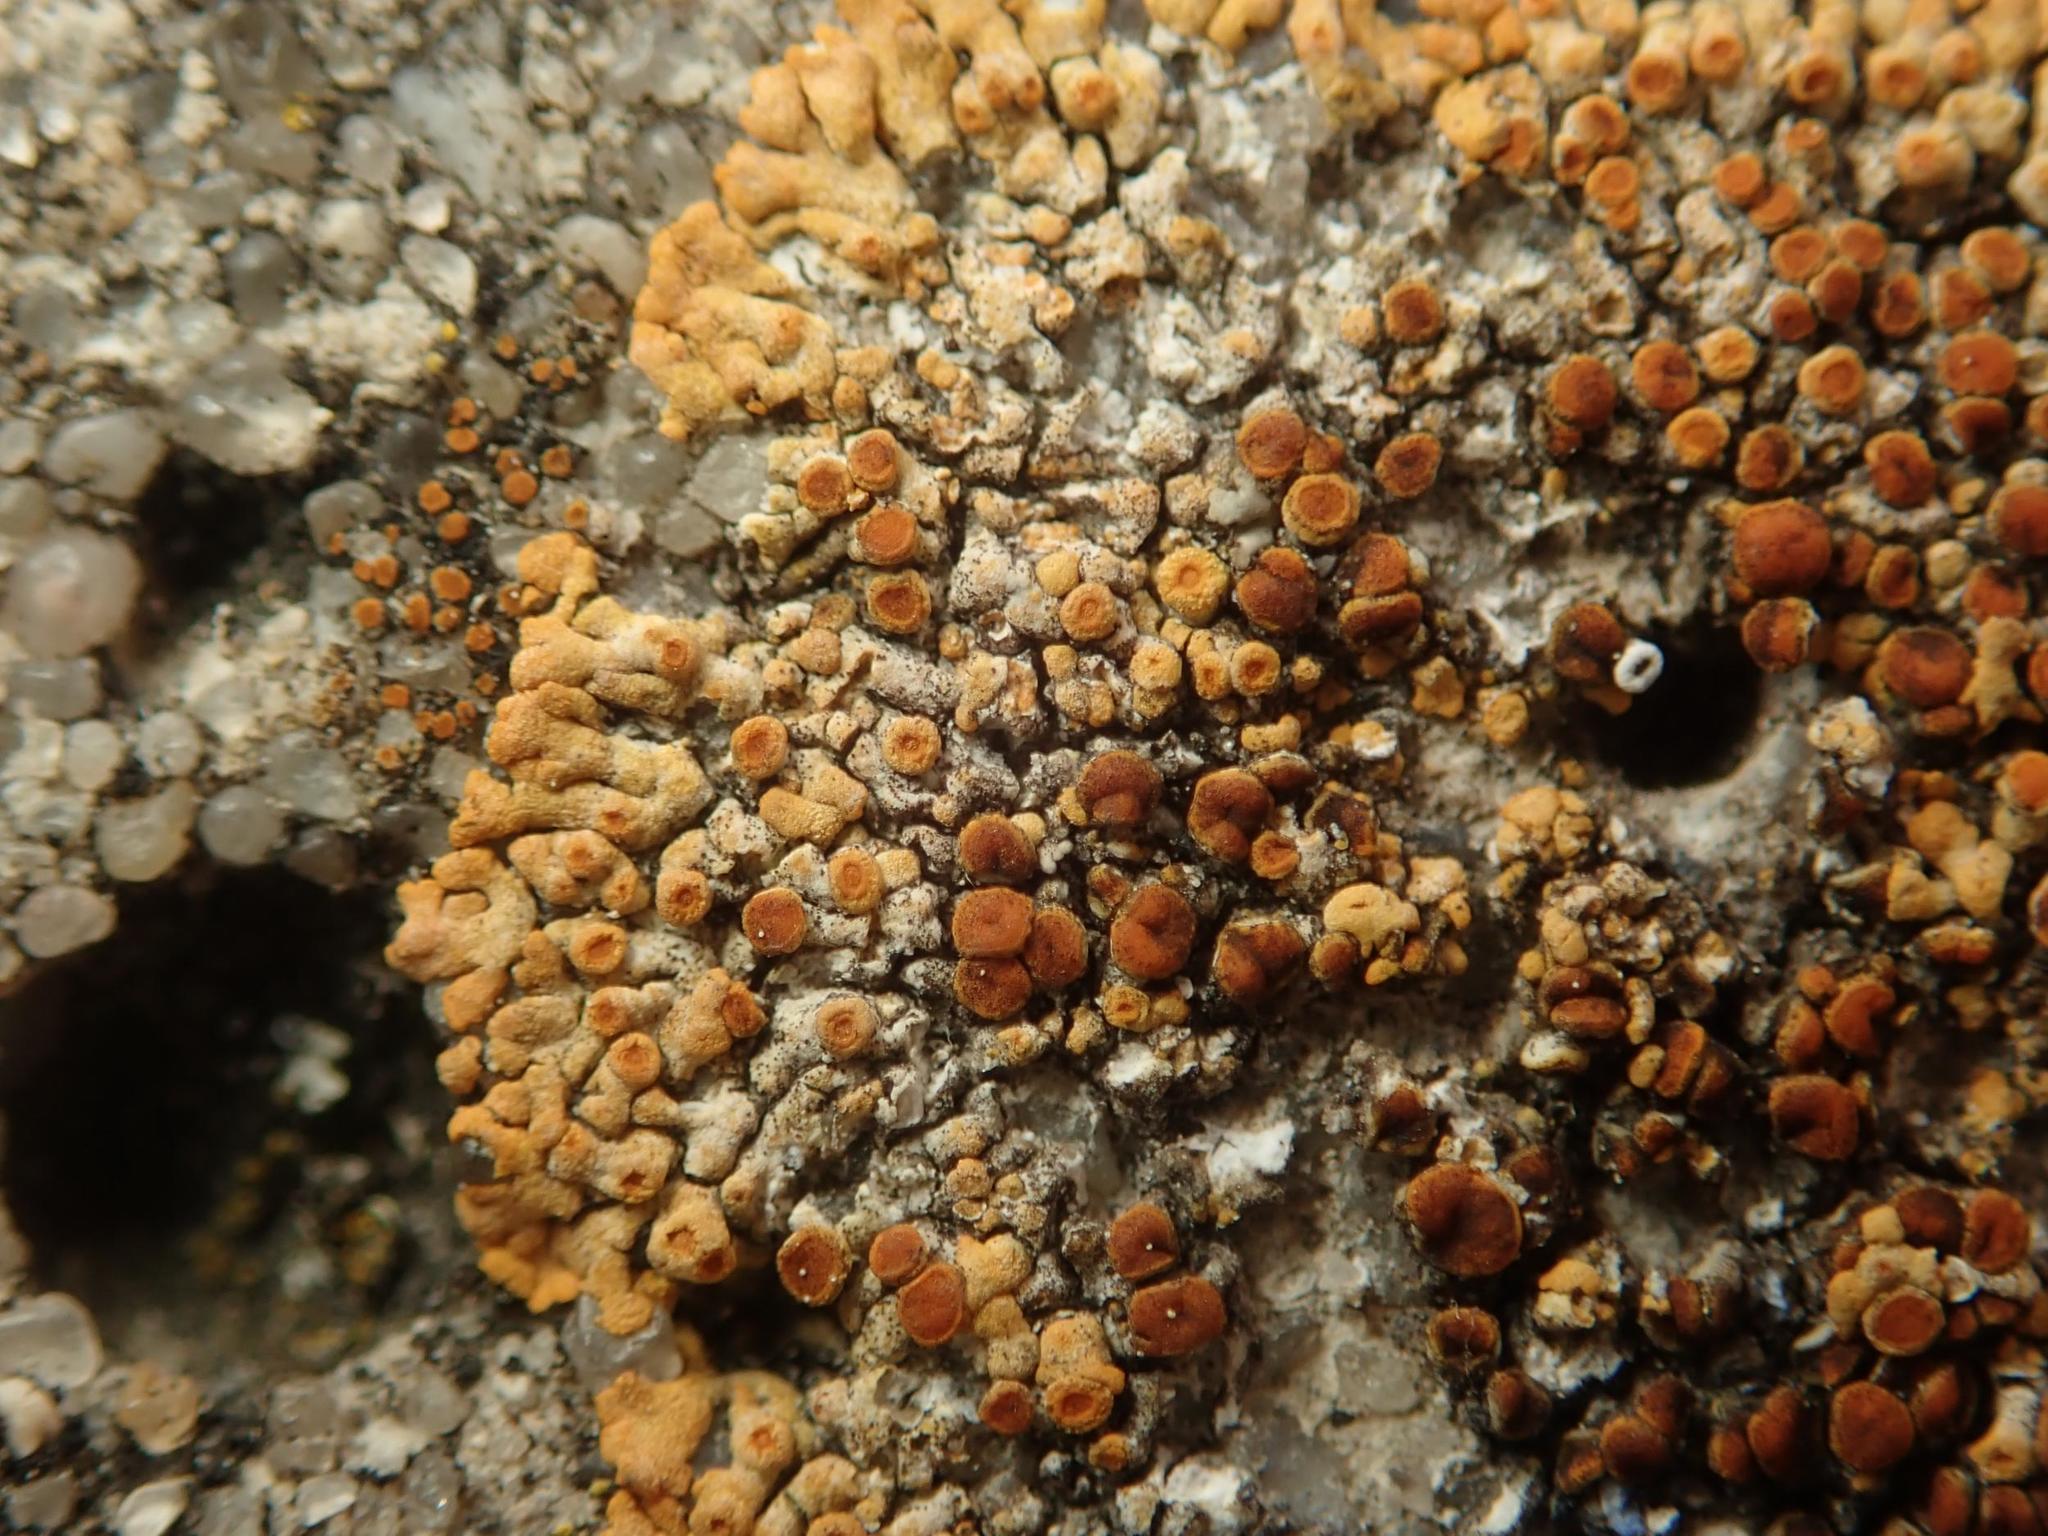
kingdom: Fungi
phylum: Ascomycota
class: Lecanoromycetes
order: Teloschistales
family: Teloschistaceae
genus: Calogaya
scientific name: Calogaya pusilla
